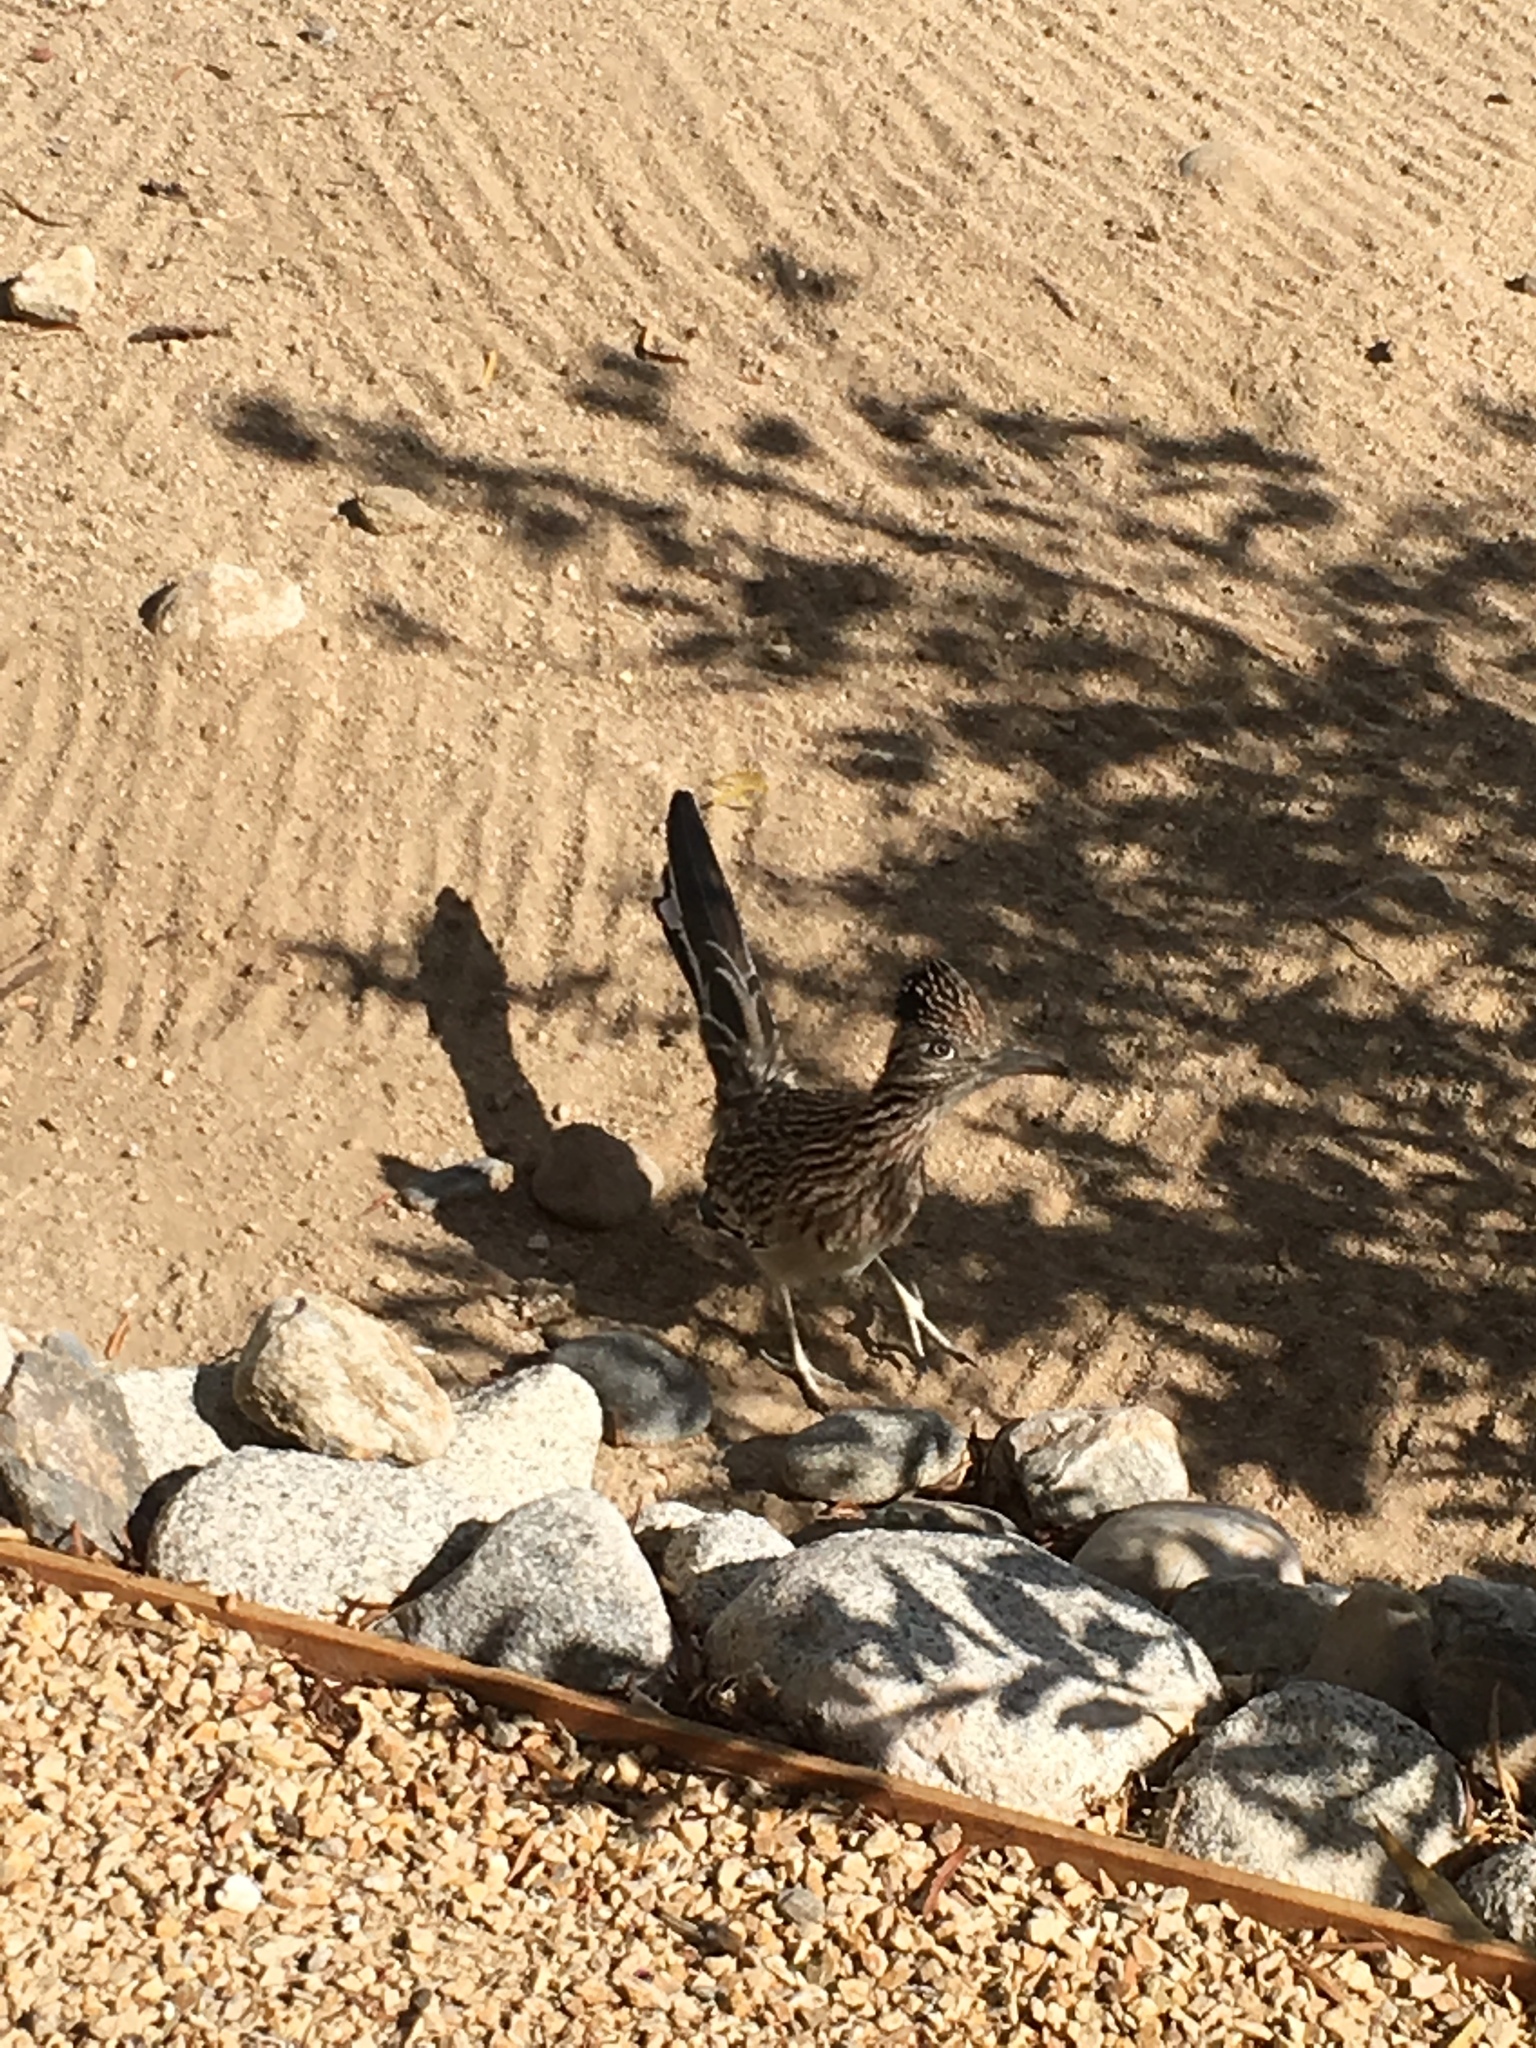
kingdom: Animalia
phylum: Chordata
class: Aves
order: Cuculiformes
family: Cuculidae
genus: Geococcyx
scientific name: Geococcyx californianus
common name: Greater roadrunner
